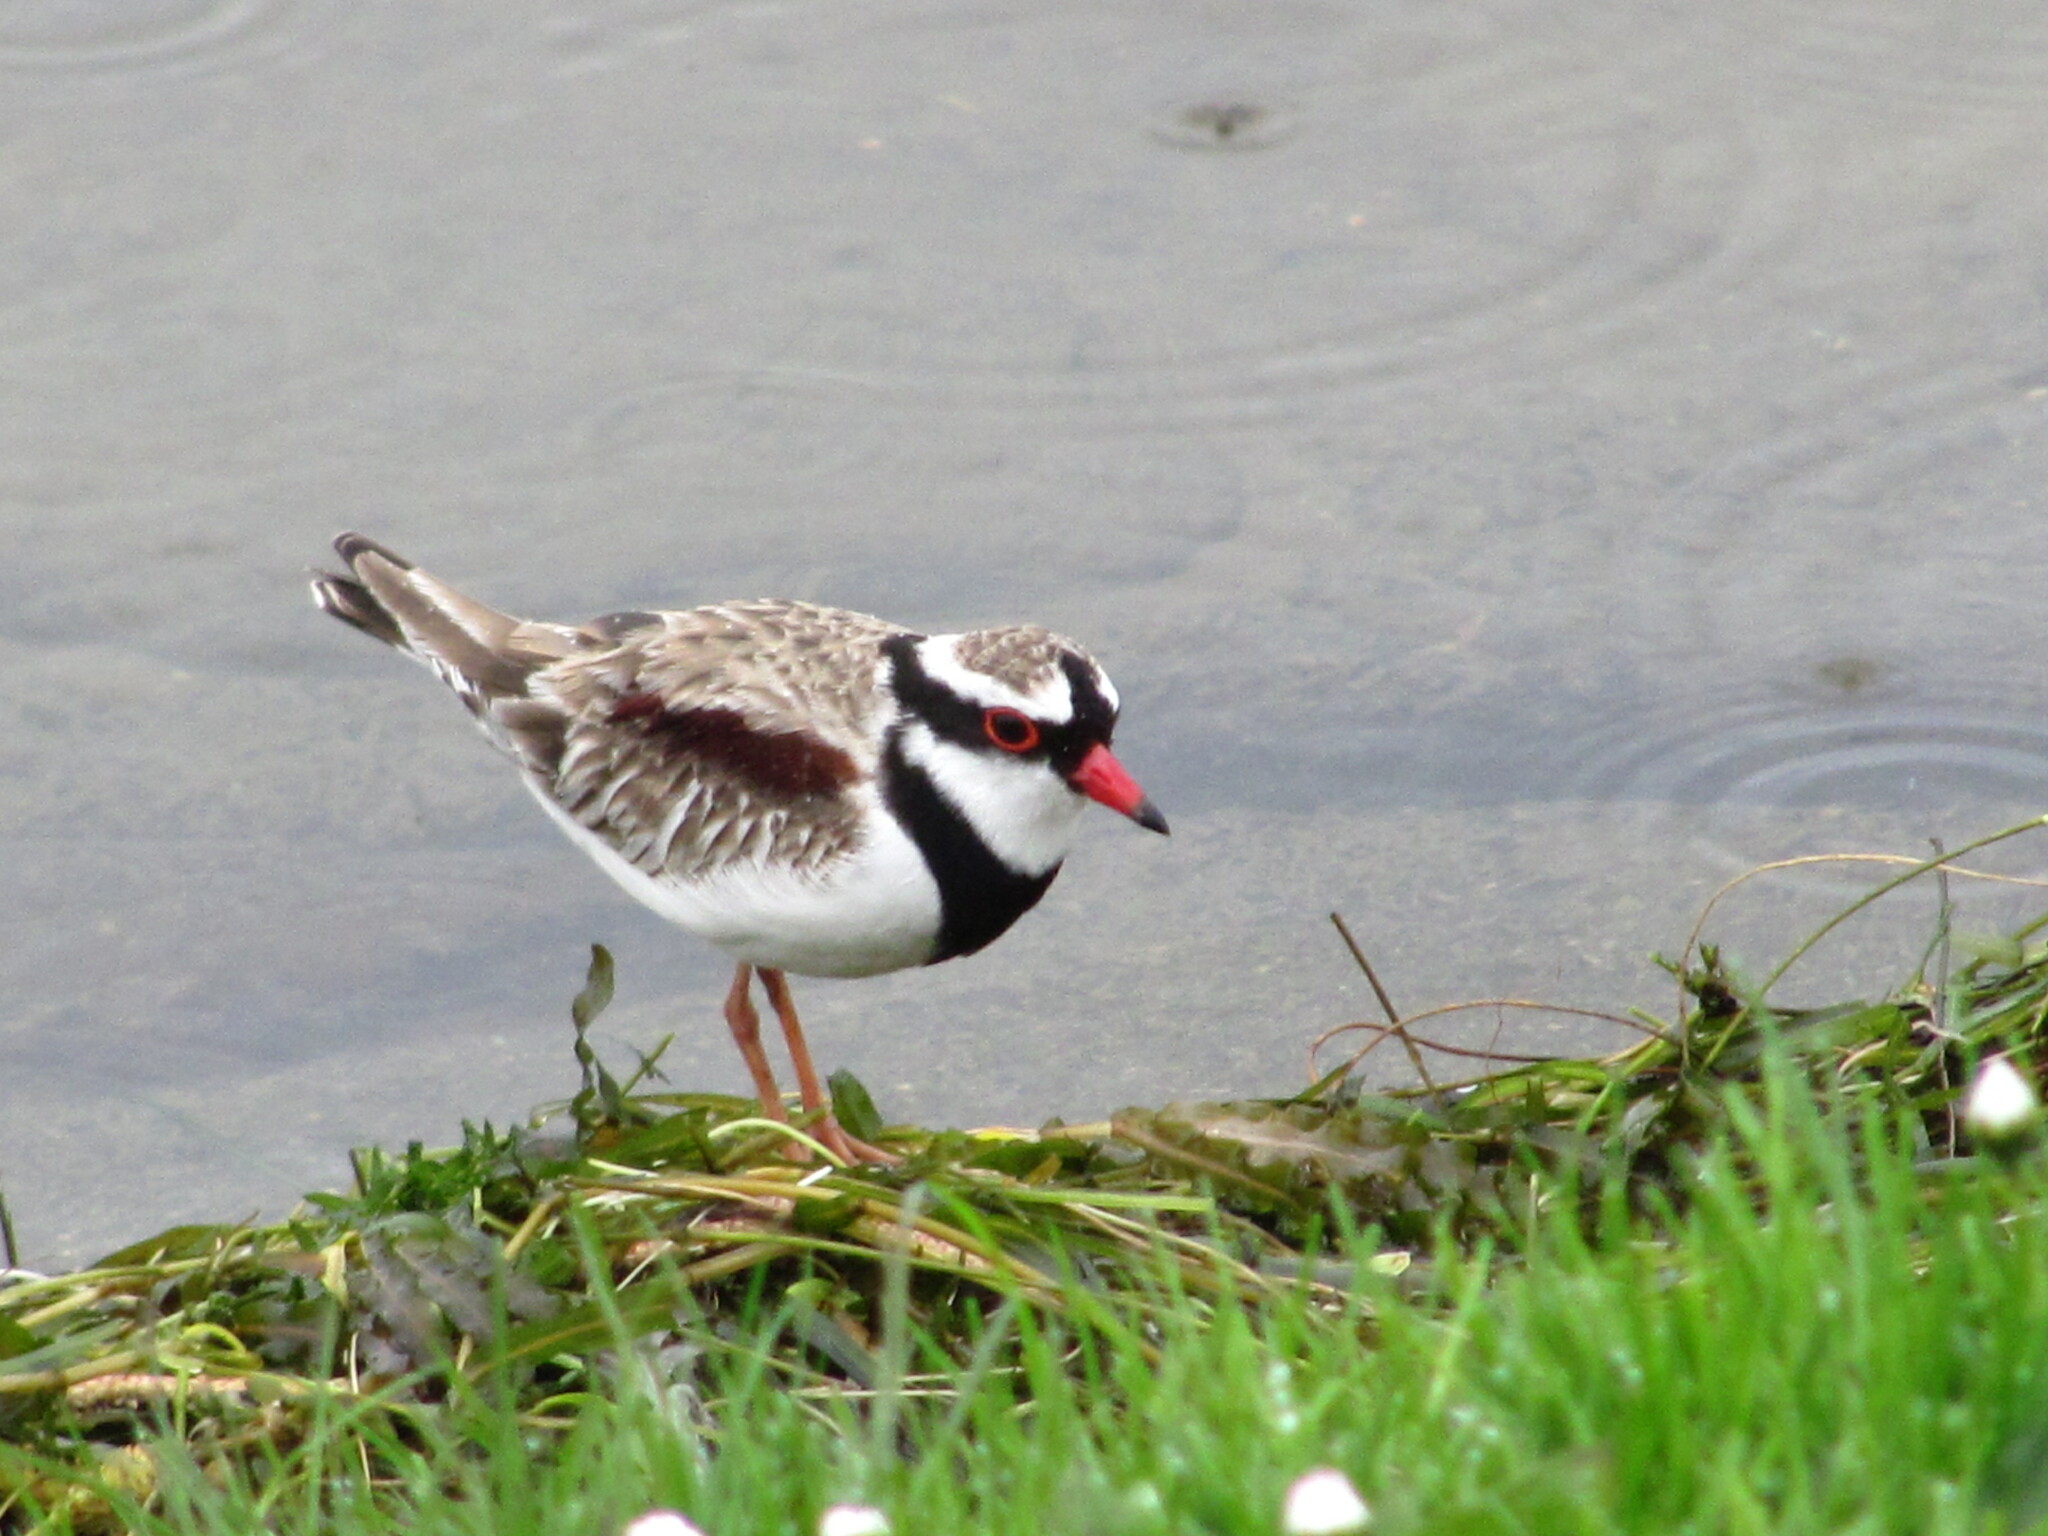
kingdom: Animalia
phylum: Chordata
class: Aves
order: Charadriiformes
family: Charadriidae
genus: Elseyornis
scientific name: Elseyornis melanops
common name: Black-fronted dotterel
